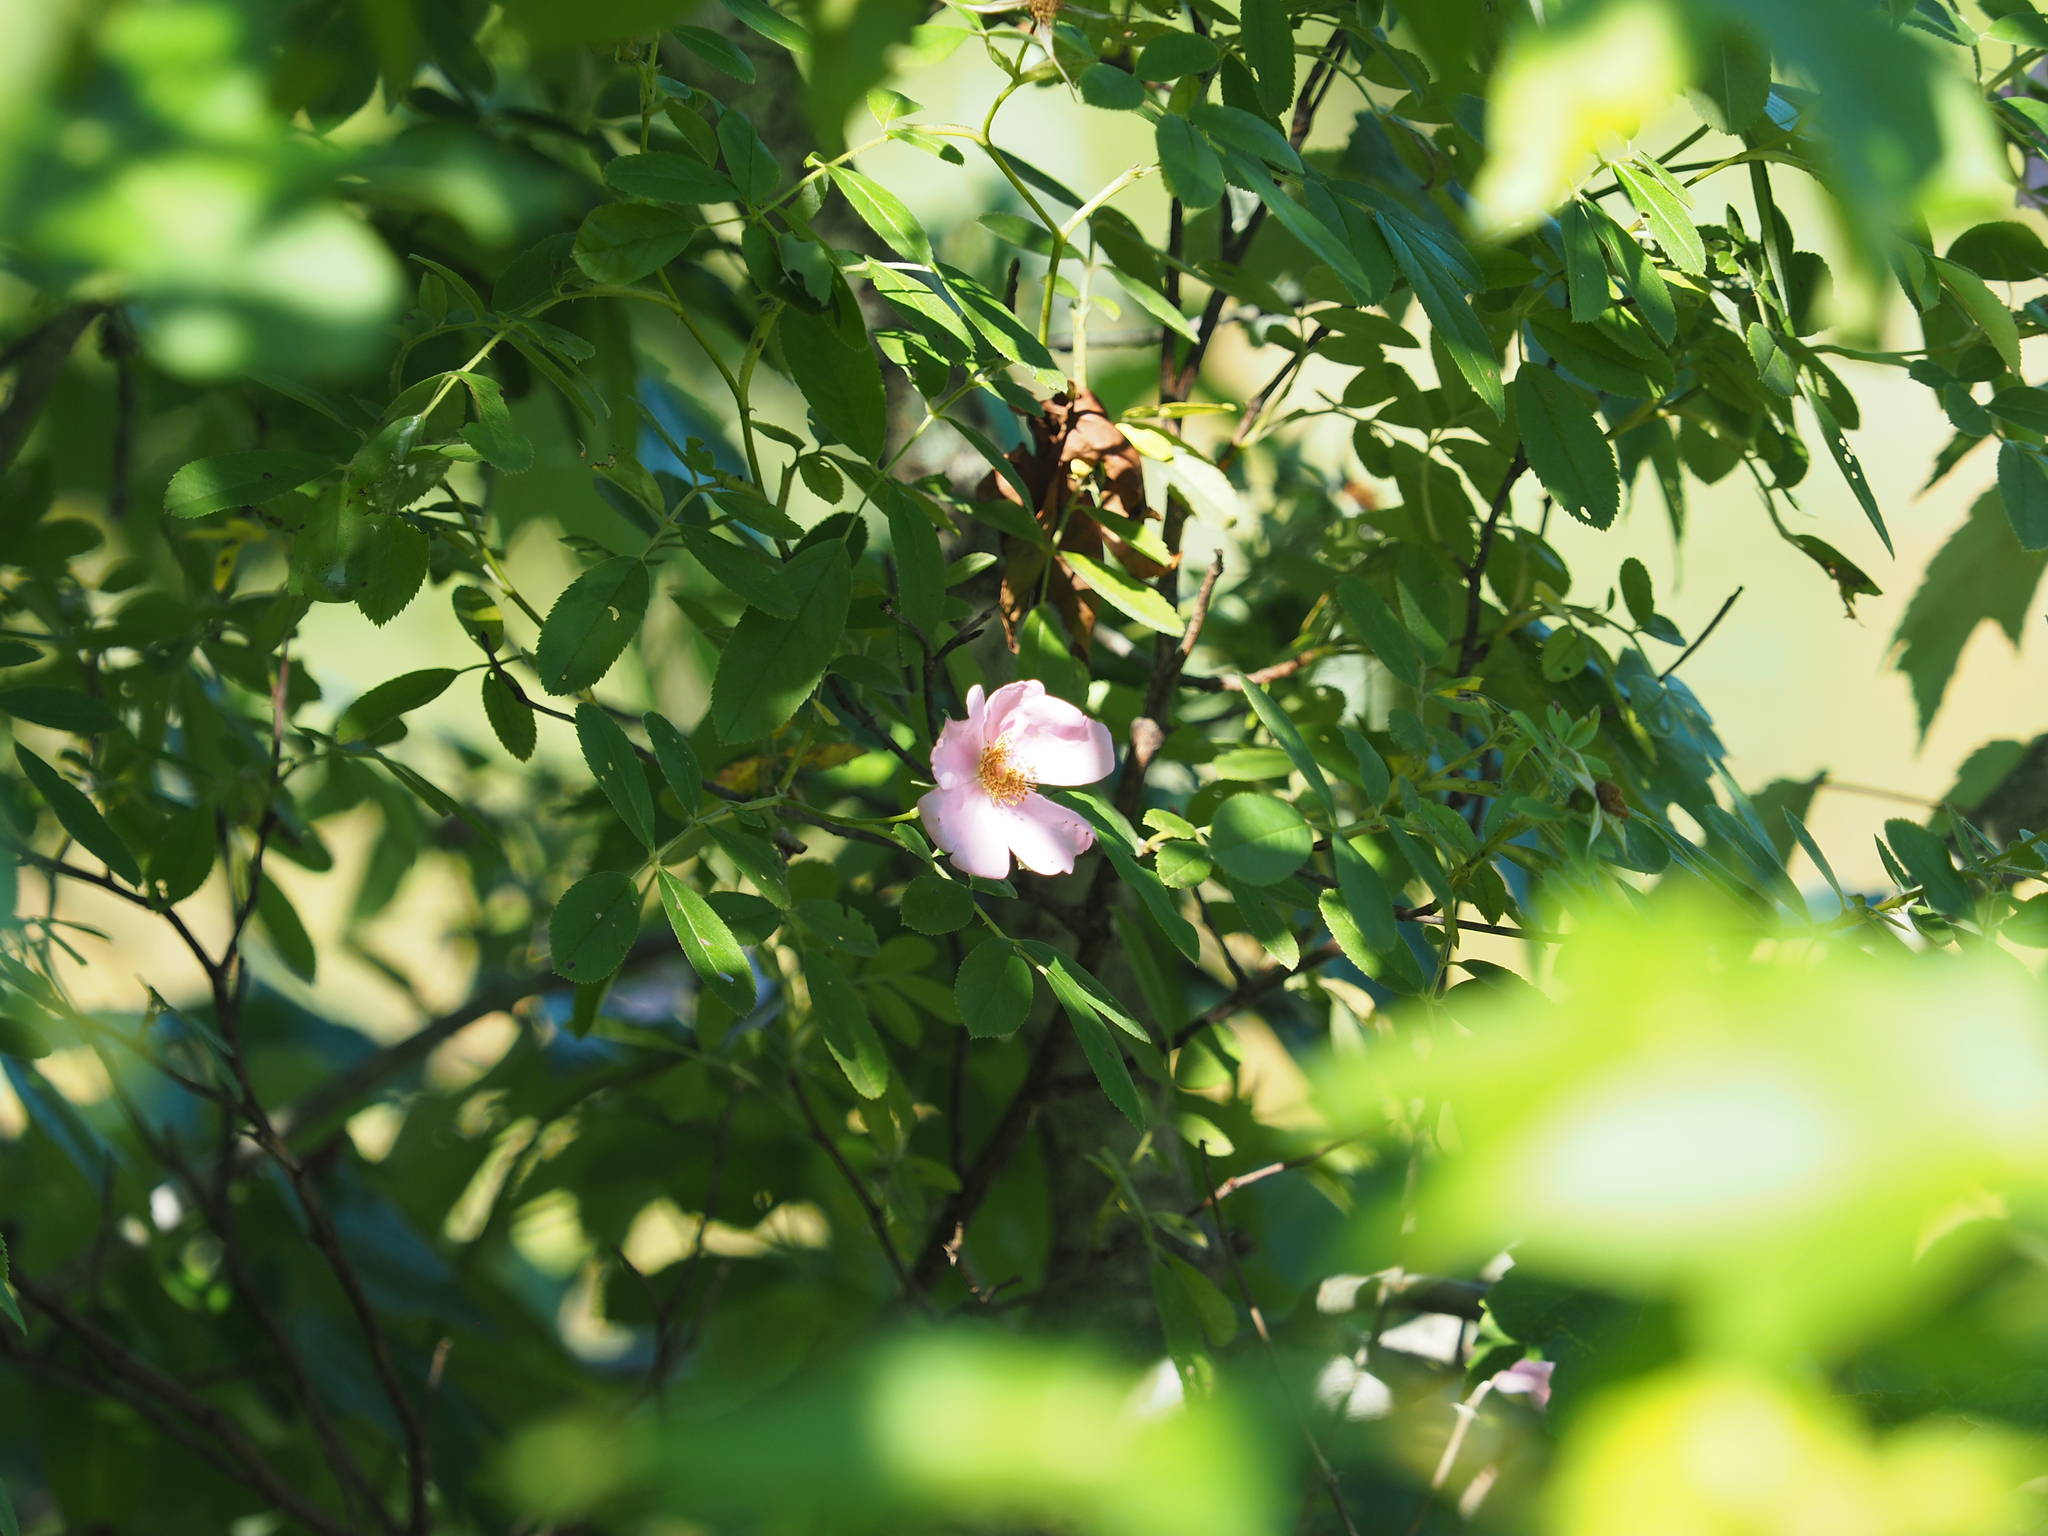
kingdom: Plantae
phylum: Tracheophyta
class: Magnoliopsida
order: Rosales
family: Rosaceae
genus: Rosa
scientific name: Rosa palustris
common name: Swamp rose
